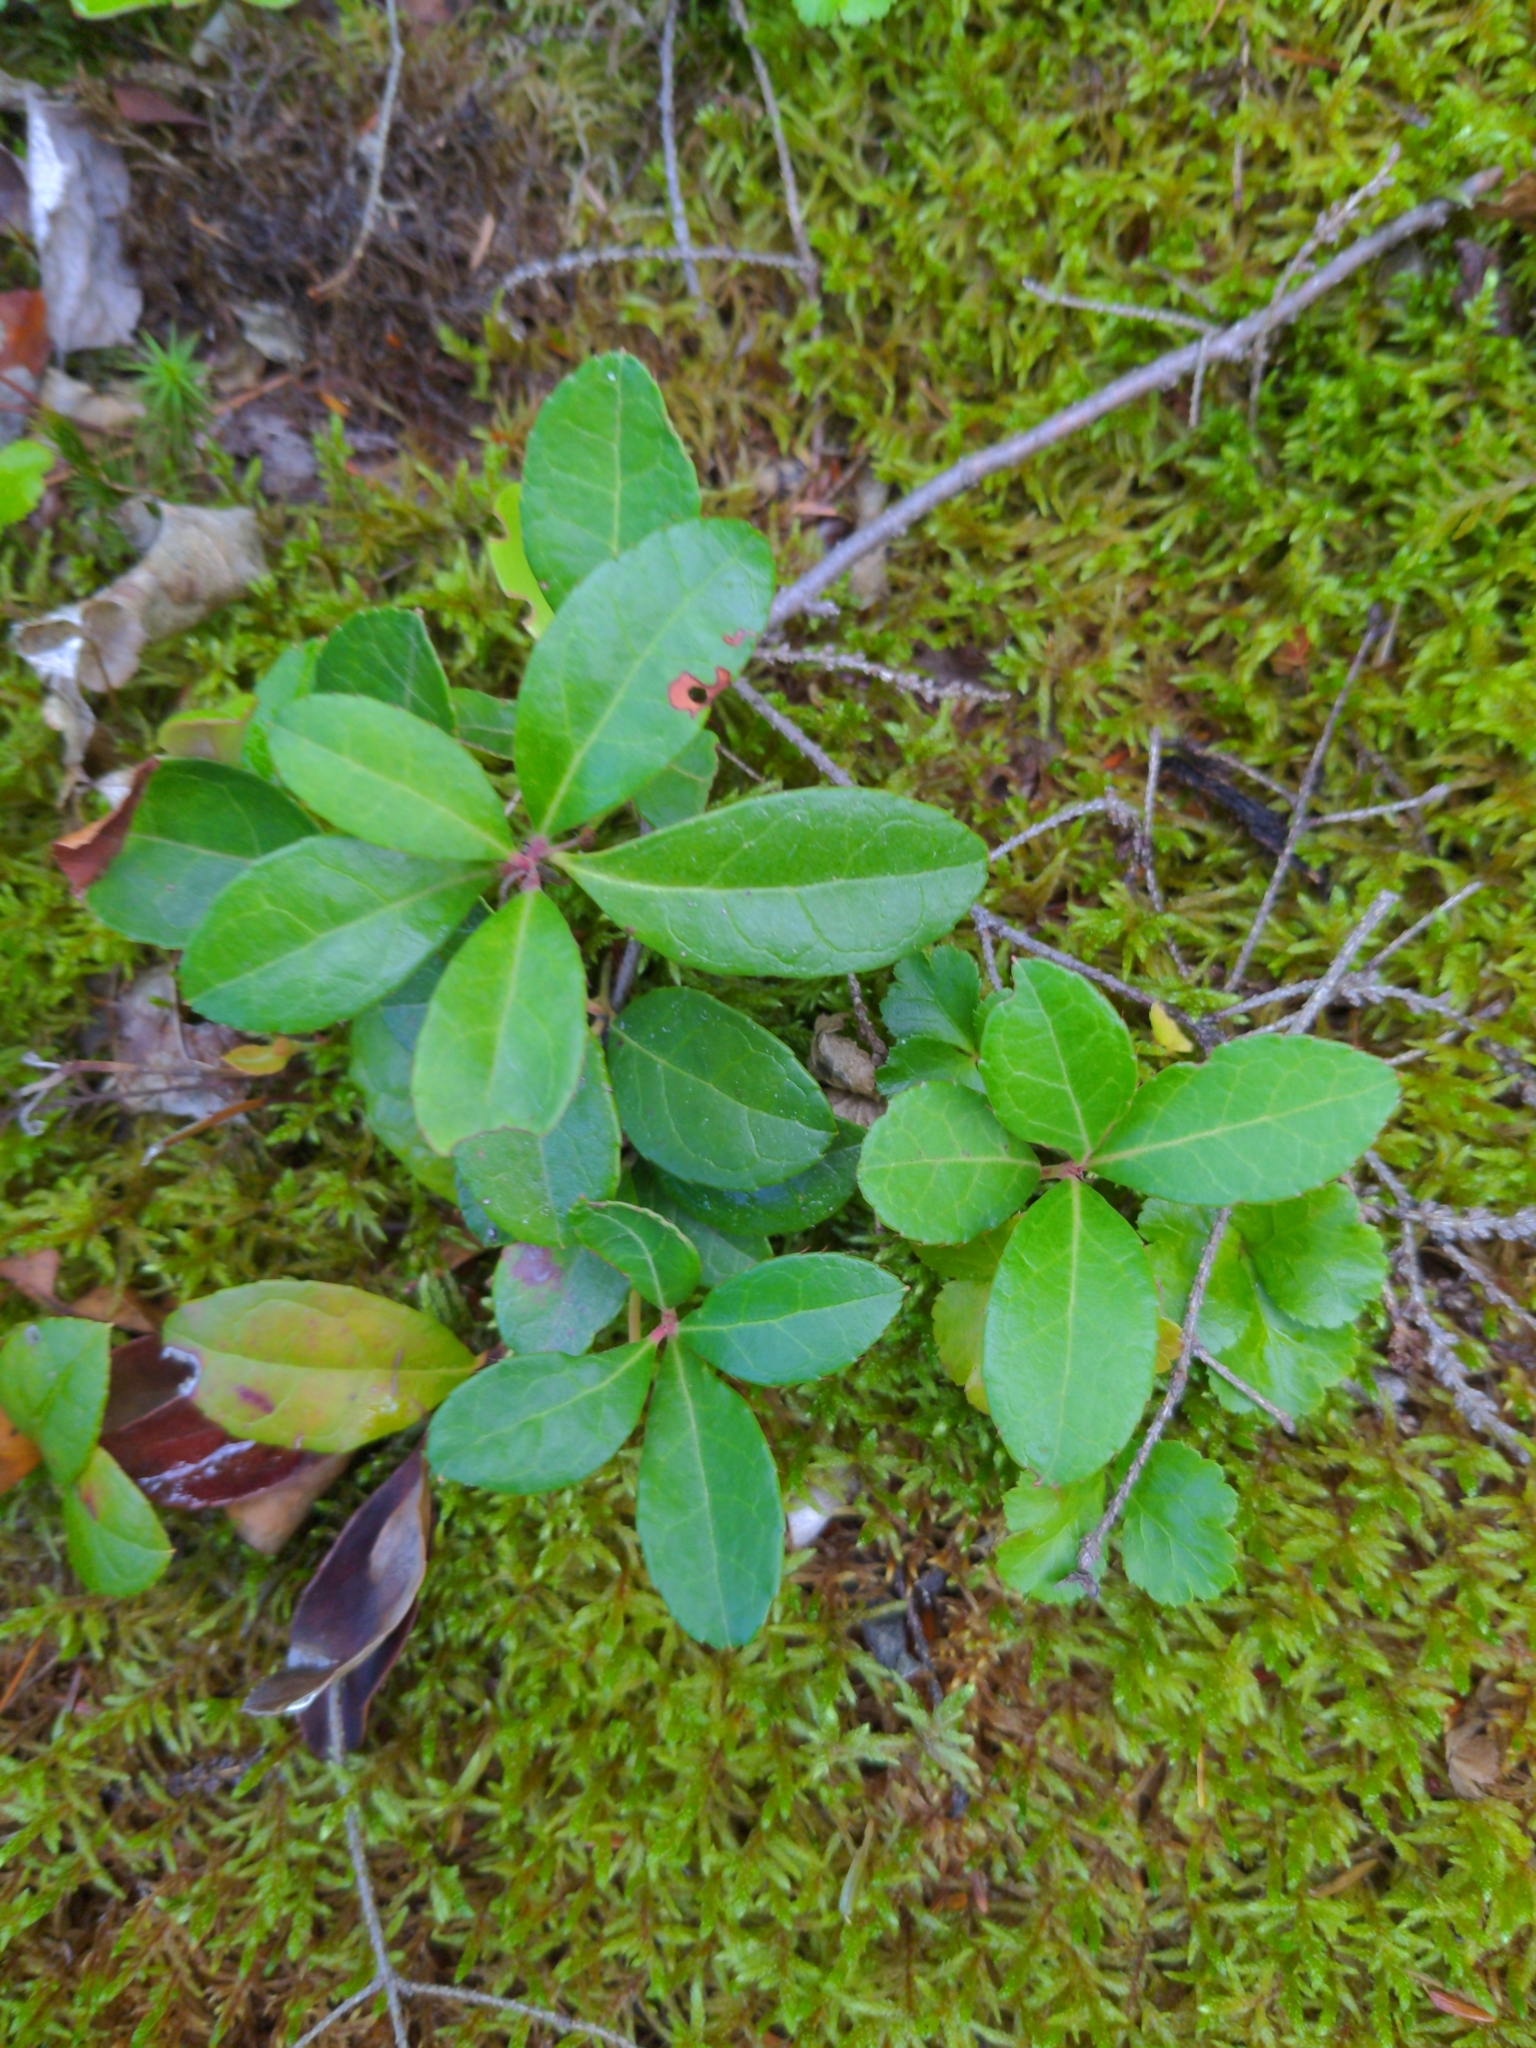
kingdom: Plantae
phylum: Tracheophyta
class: Magnoliopsida
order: Ericales
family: Ericaceae
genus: Gaultheria
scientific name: Gaultheria procumbens
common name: Checkerberry
